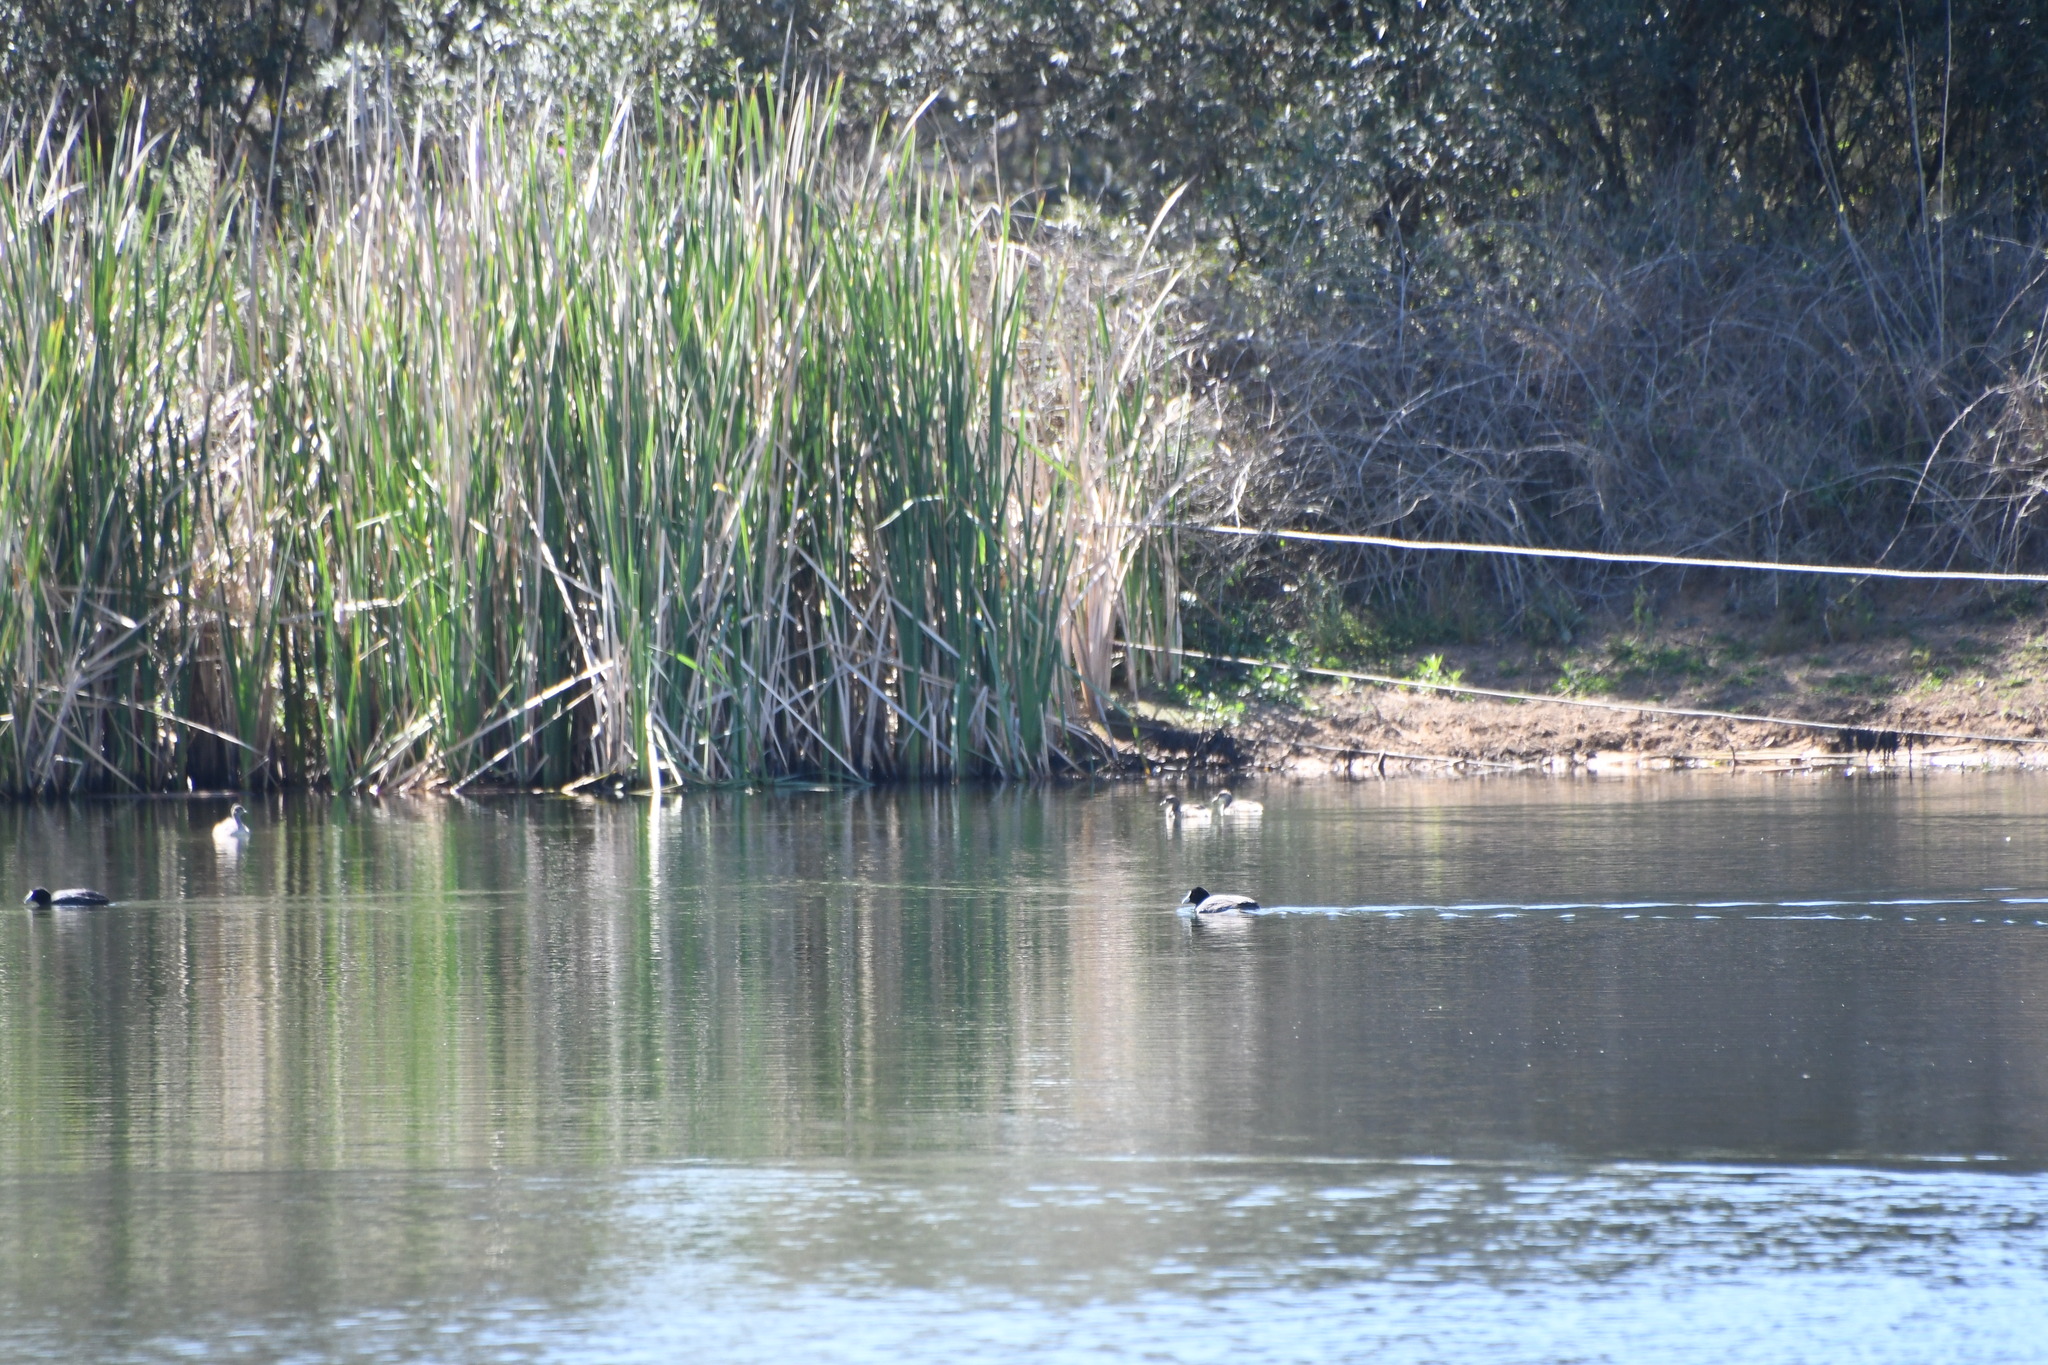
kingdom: Animalia
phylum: Chordata
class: Aves
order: Gruiformes
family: Rallidae
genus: Fulica
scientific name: Fulica atra
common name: Eurasian coot
